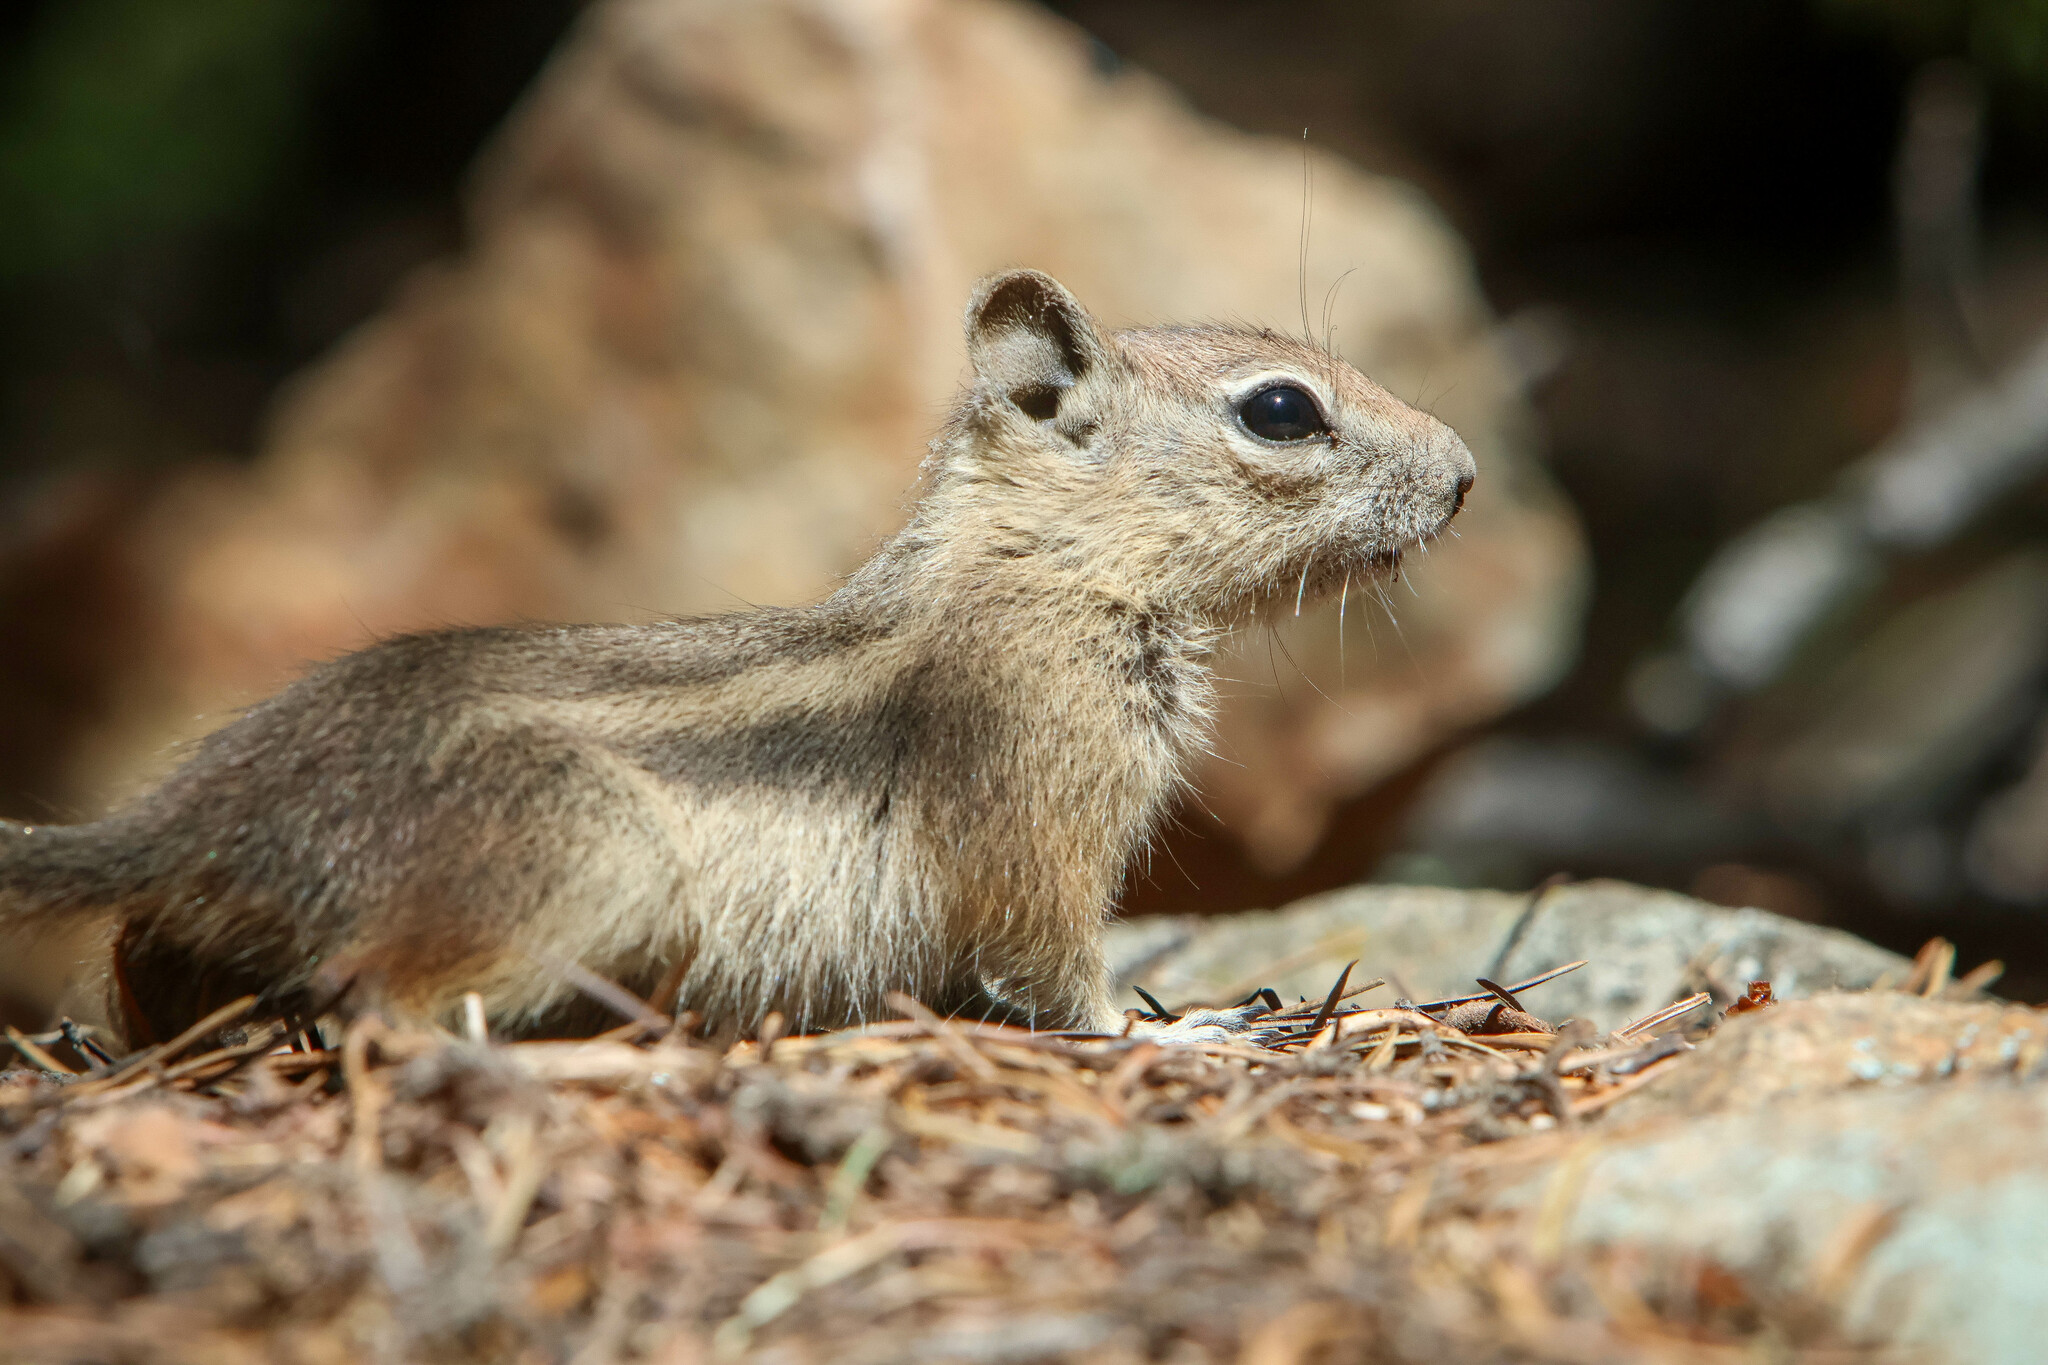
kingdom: Animalia
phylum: Chordata
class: Mammalia
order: Rodentia
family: Sciuridae
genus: Callospermophilus
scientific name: Callospermophilus lateralis
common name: Golden-mantled ground squirrel
